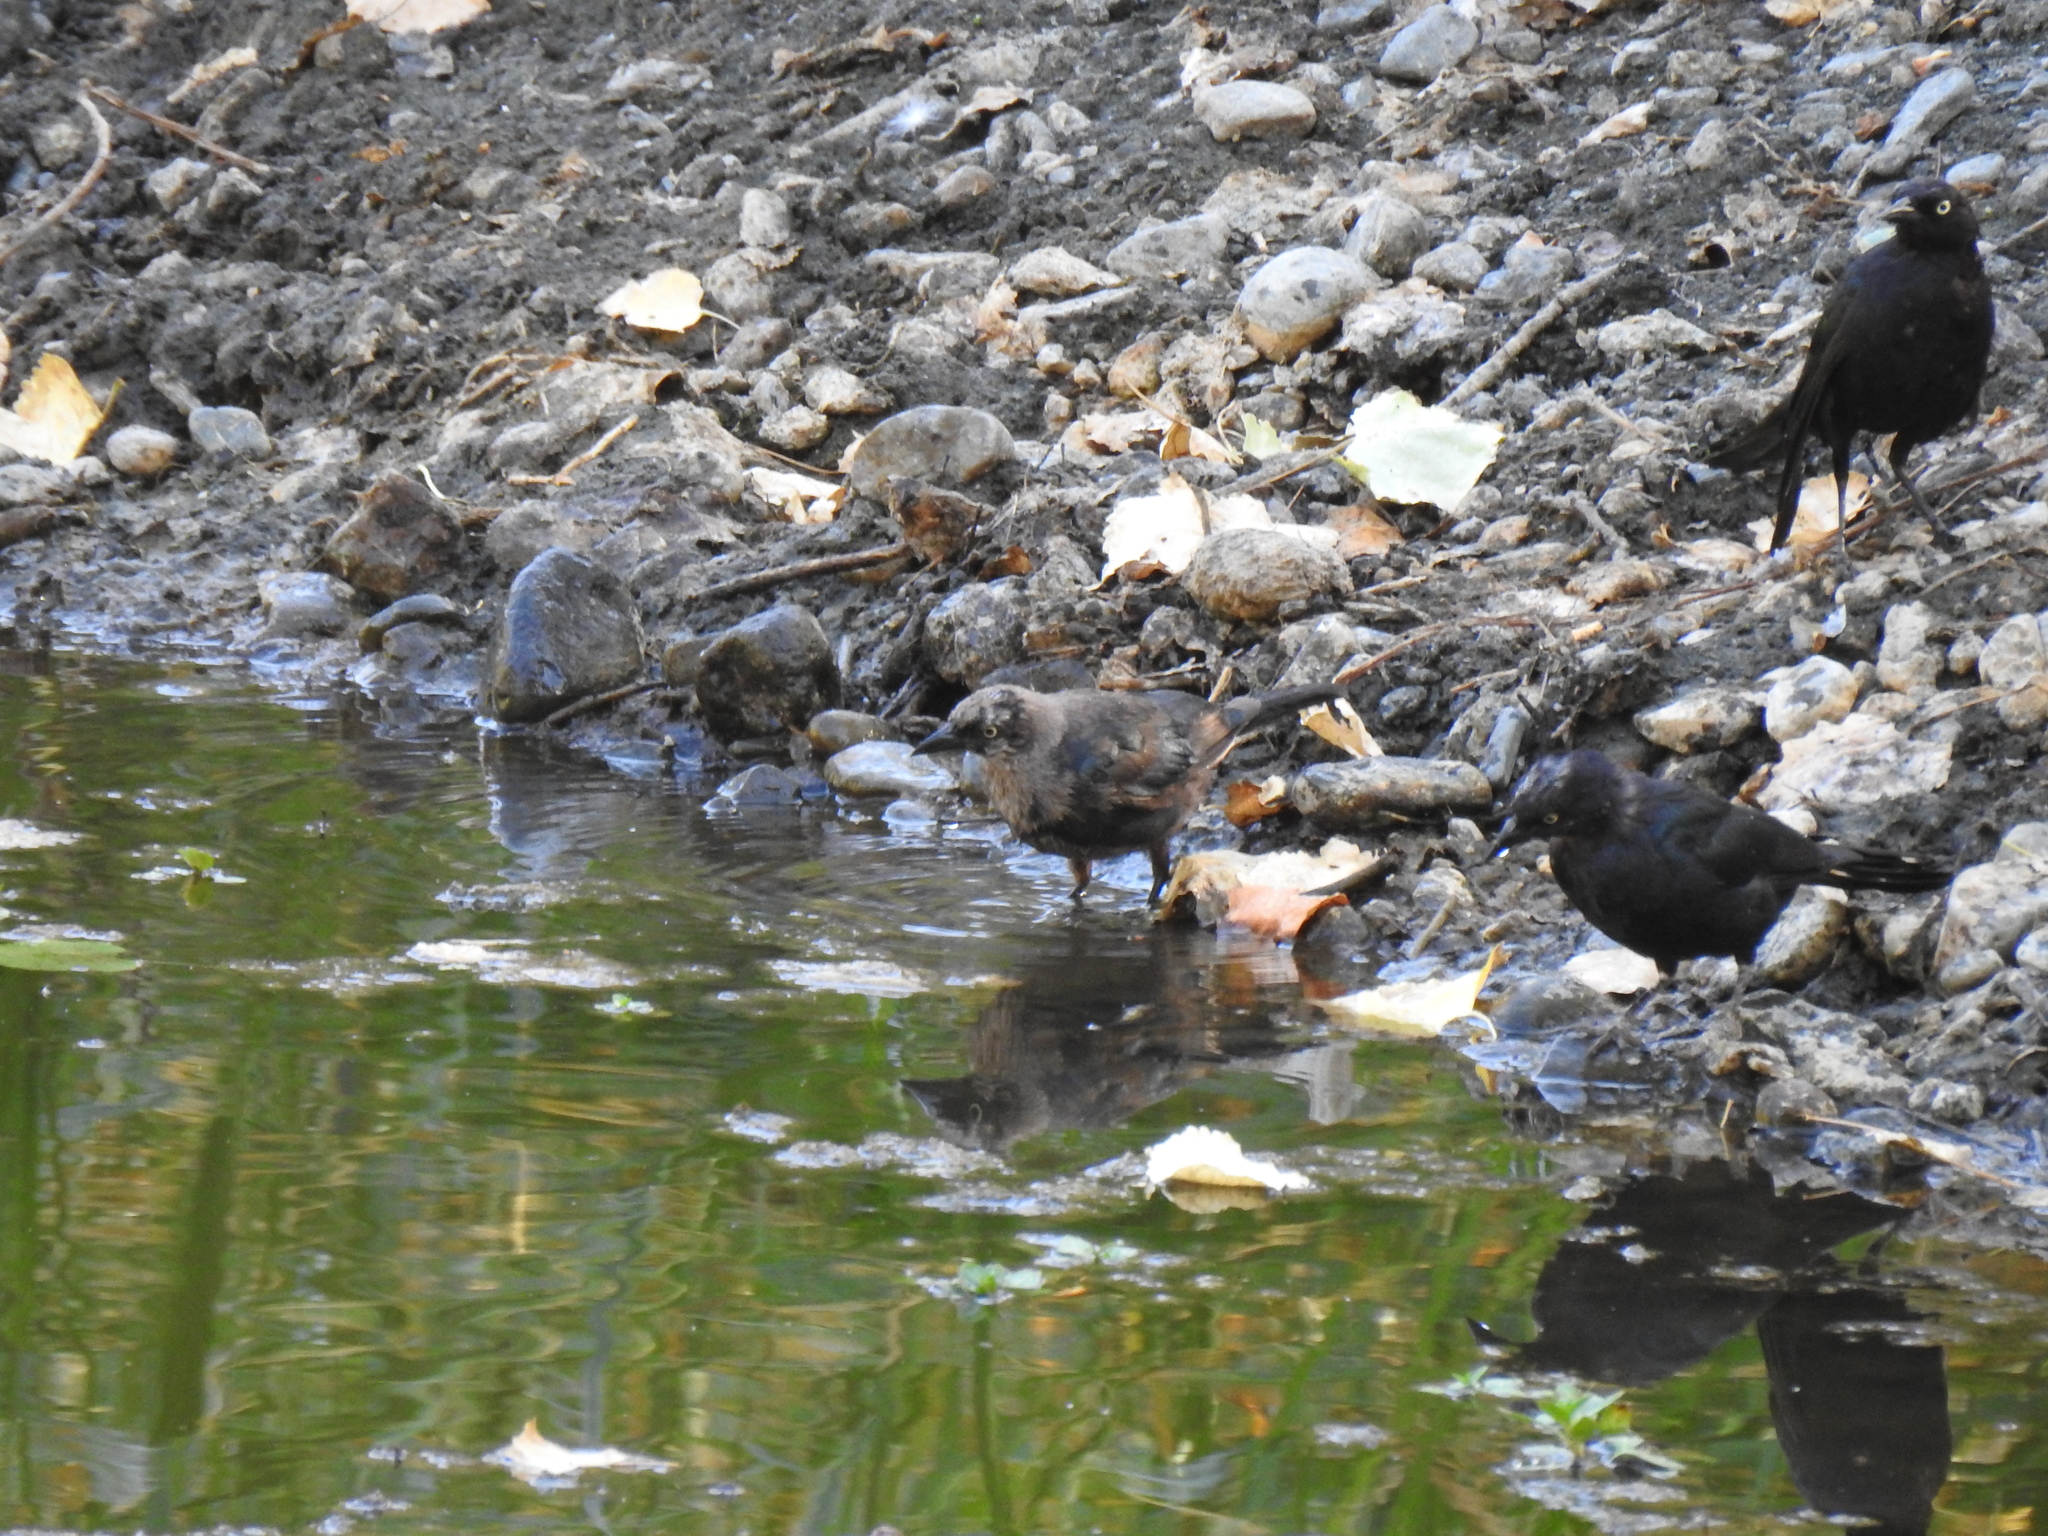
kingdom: Animalia
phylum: Chordata
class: Aves
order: Passeriformes
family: Icteridae
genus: Euphagus
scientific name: Euphagus cyanocephalus
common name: Brewer's blackbird
